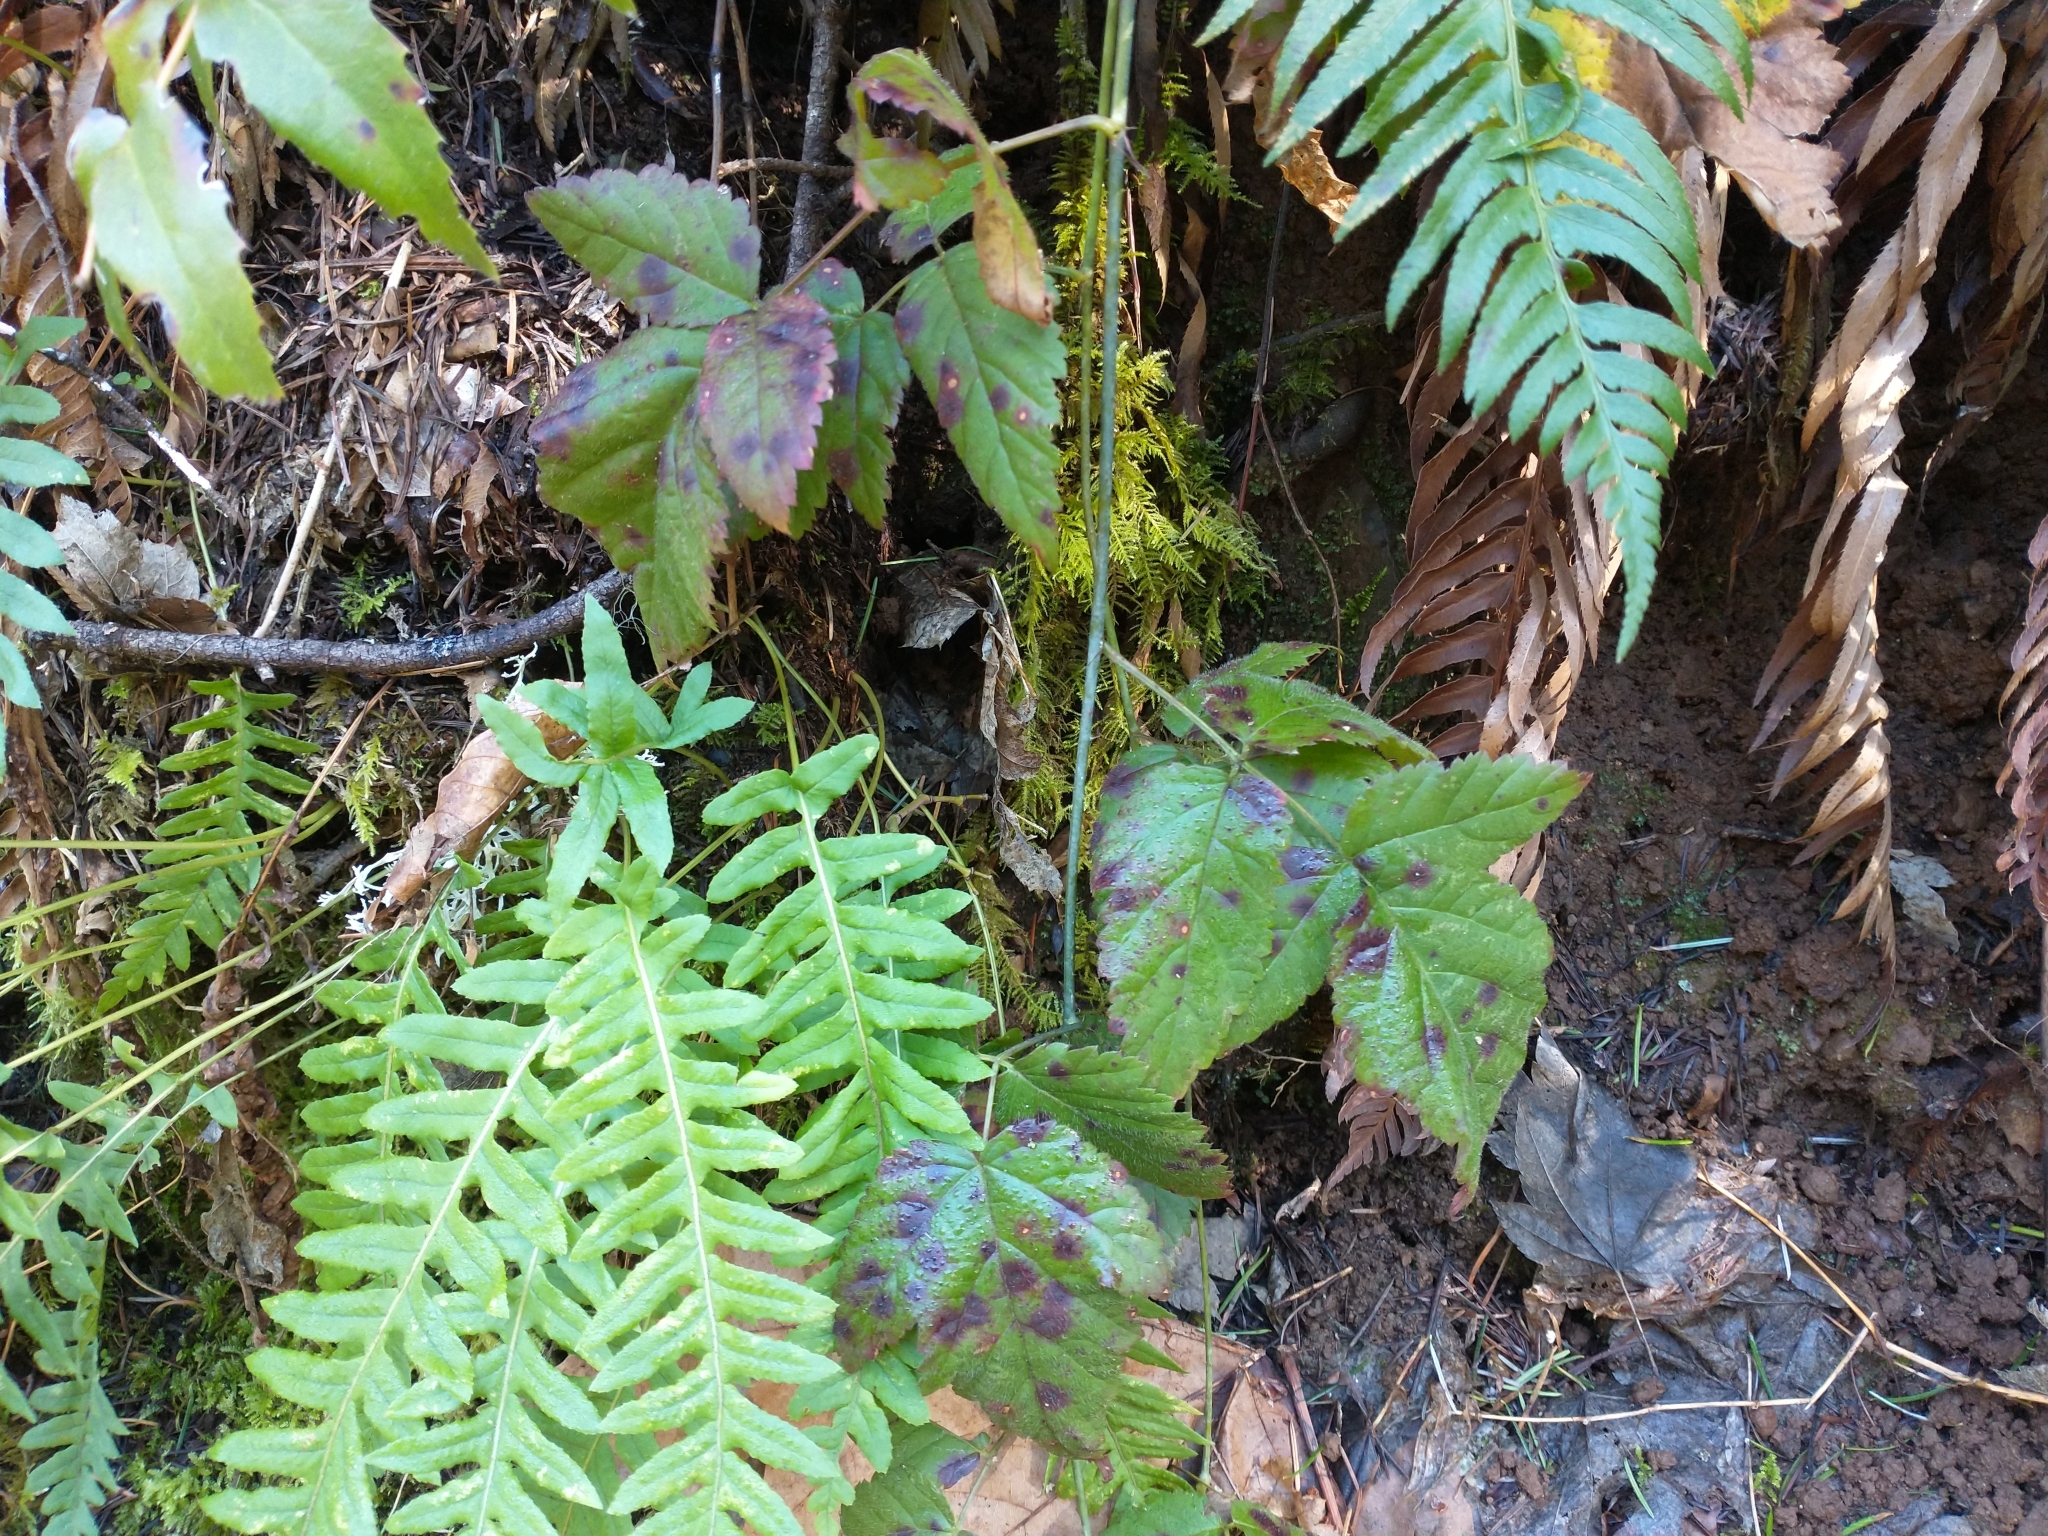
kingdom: Plantae
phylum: Tracheophyta
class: Polypodiopsida
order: Polypodiales
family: Polypodiaceae
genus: Polypodium
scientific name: Polypodium glycyrrhiza
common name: Licorice fern
